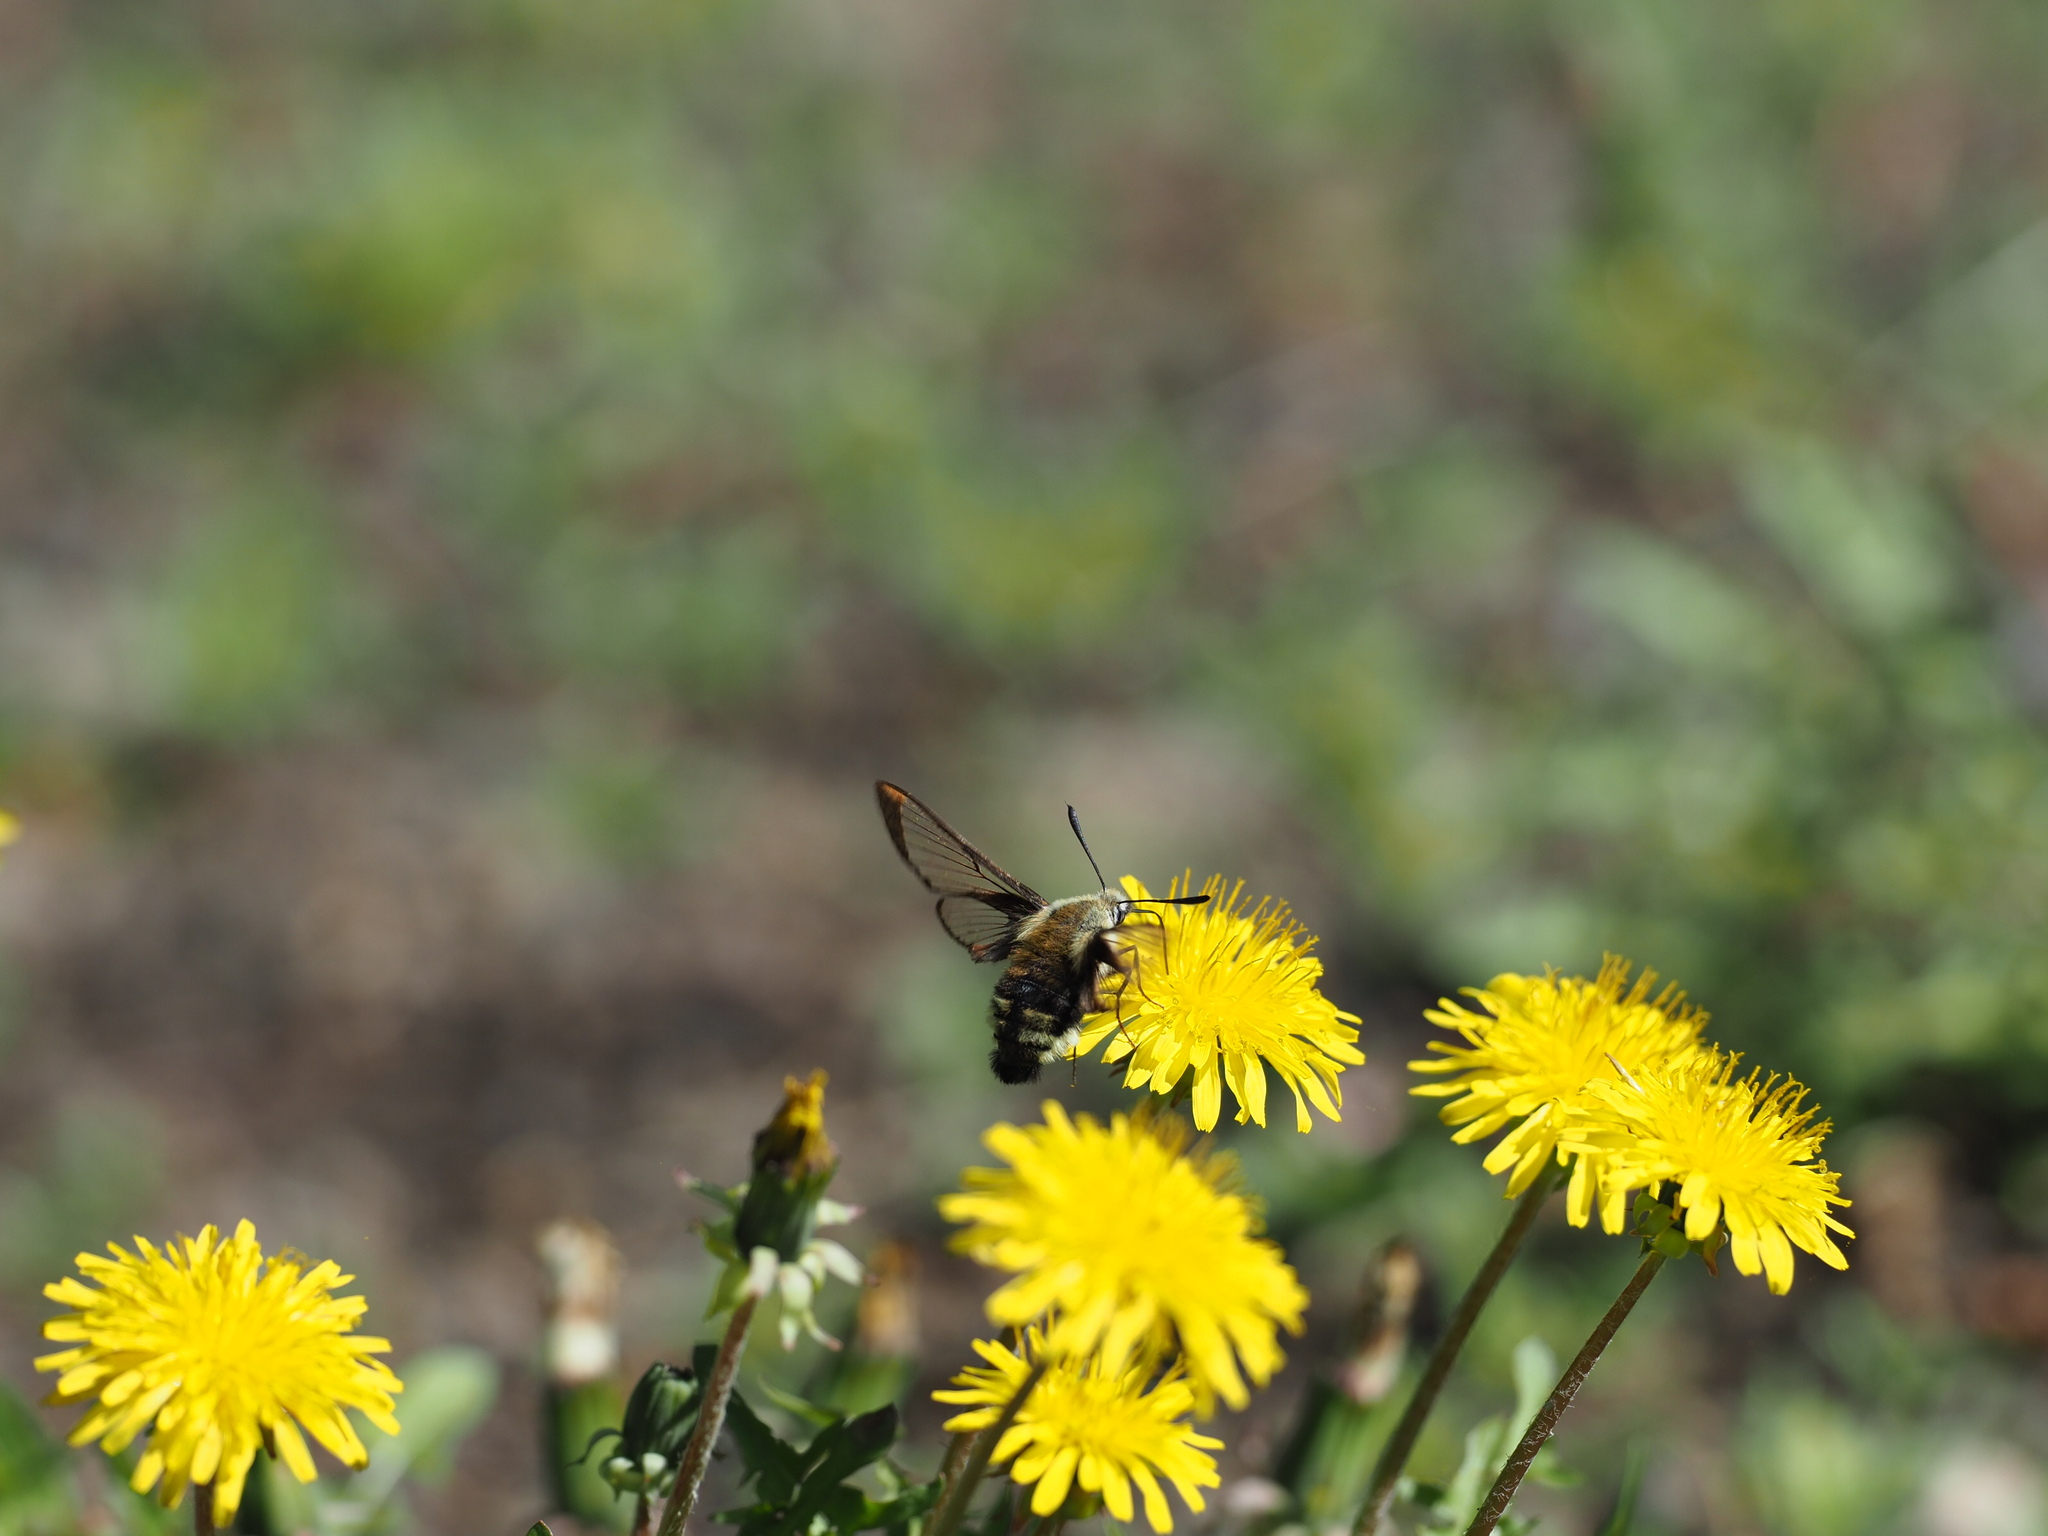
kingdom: Animalia
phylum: Arthropoda
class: Insecta
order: Lepidoptera
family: Sphingidae
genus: Hemaris
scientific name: Hemaris thetis
